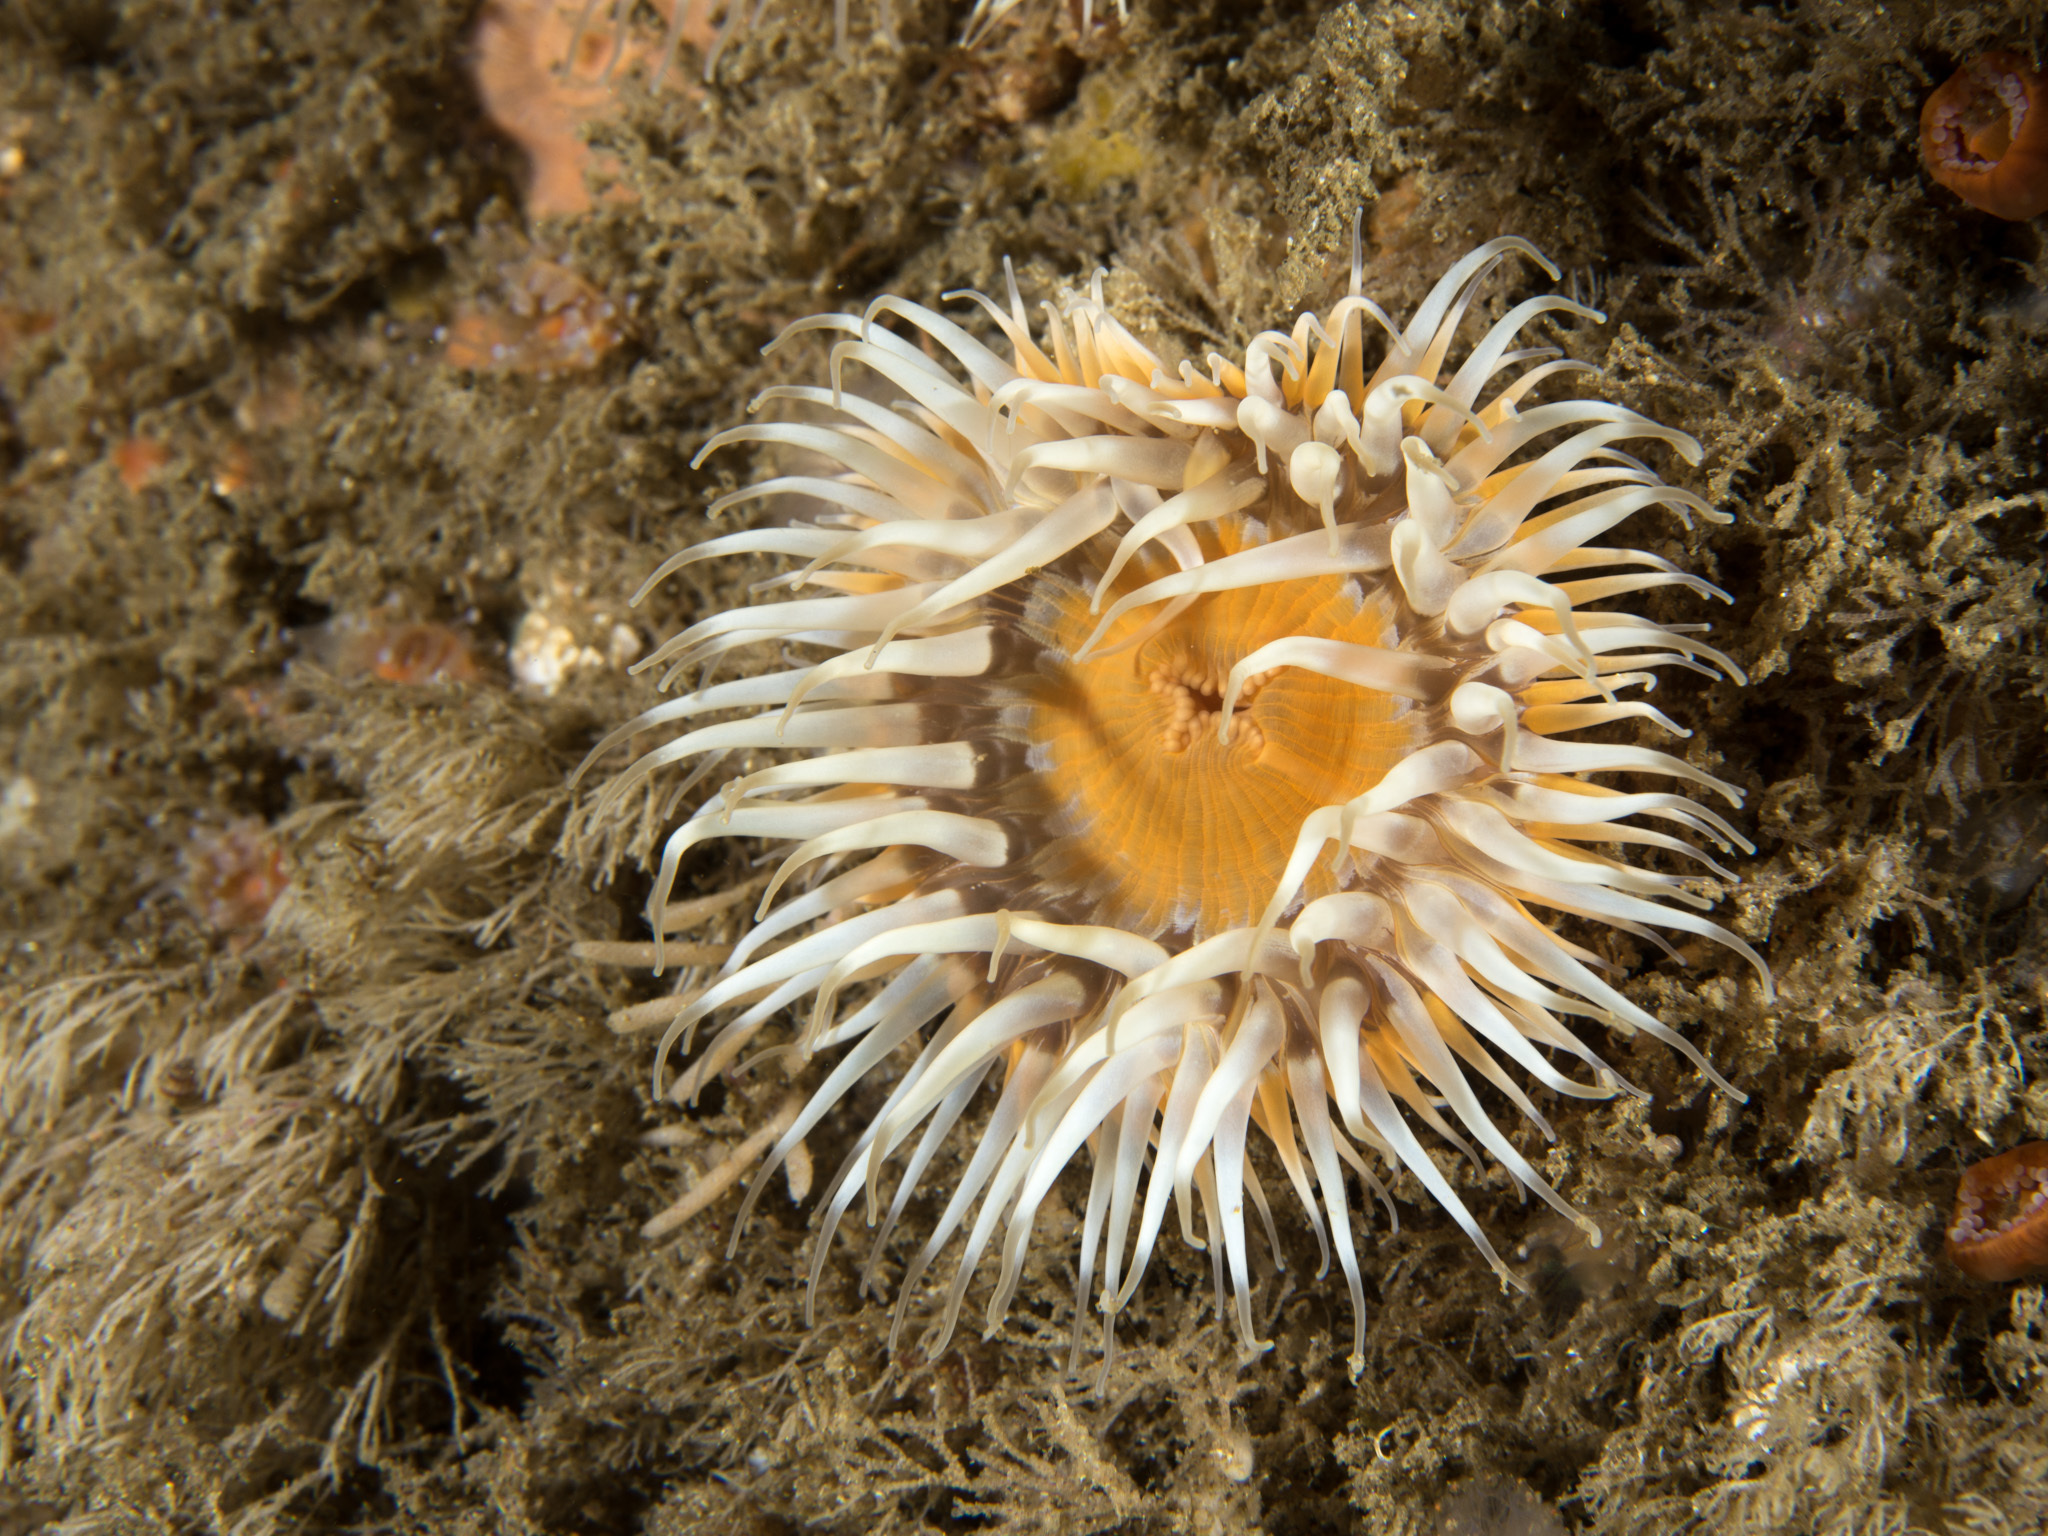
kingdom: Animalia
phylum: Cnidaria
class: Anthozoa
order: Actiniaria
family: Sagartiidae
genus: Cylista
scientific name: Cylista elegans
